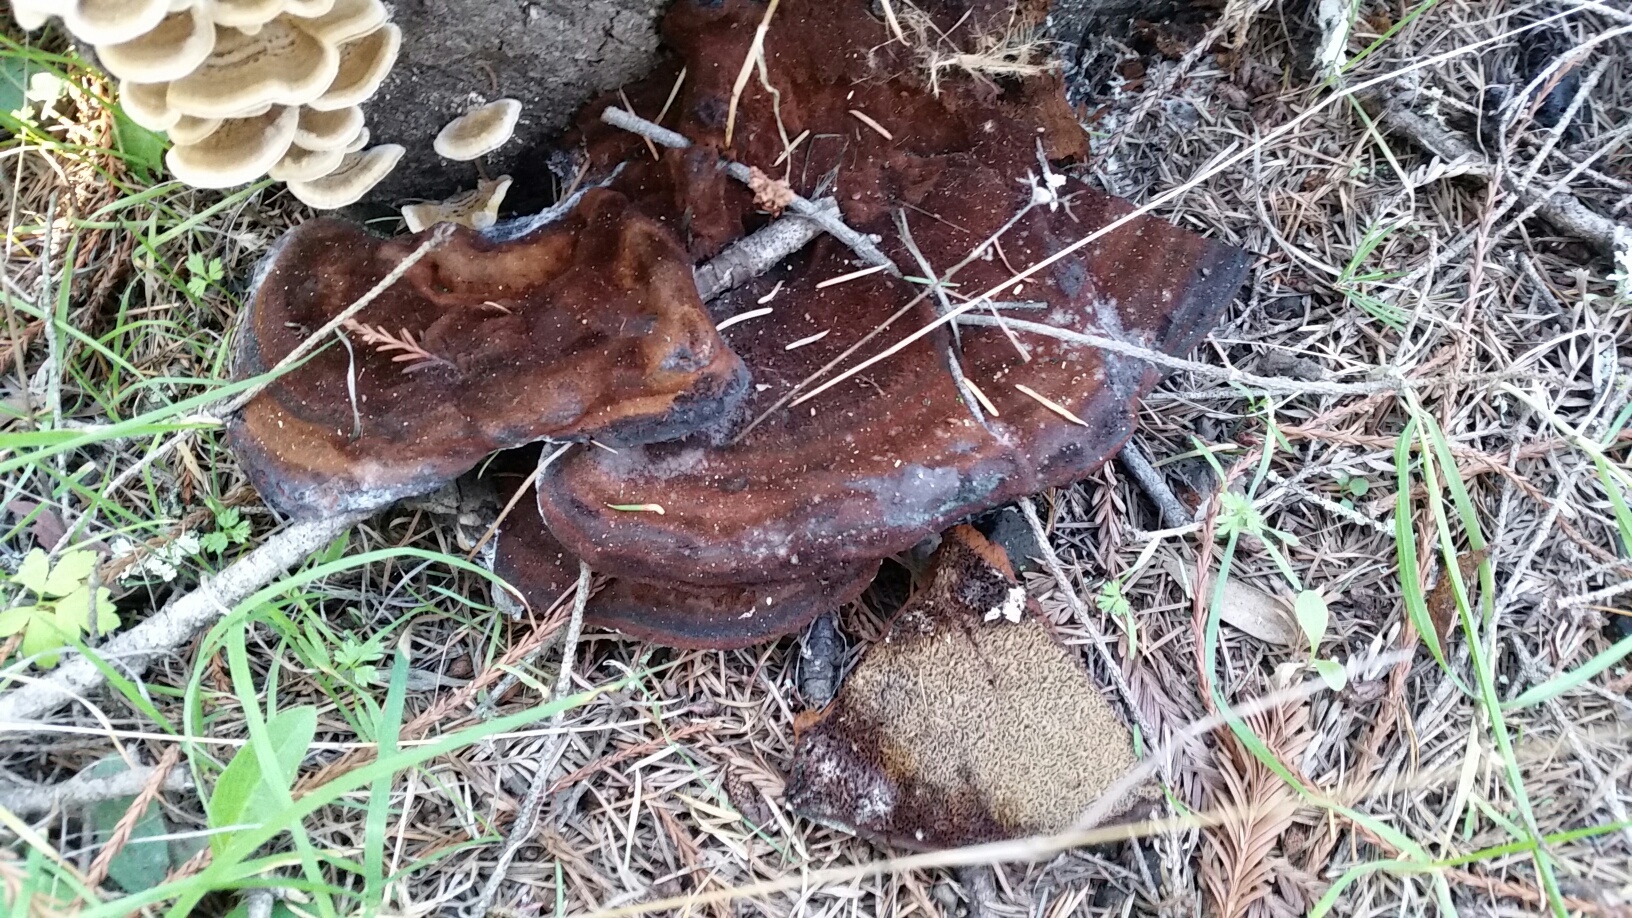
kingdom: Fungi
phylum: Basidiomycota
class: Agaricomycetes
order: Polyporales
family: Laetiporaceae
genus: Phaeolus
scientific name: Phaeolus schweinitzii
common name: Dyer's mazegill
